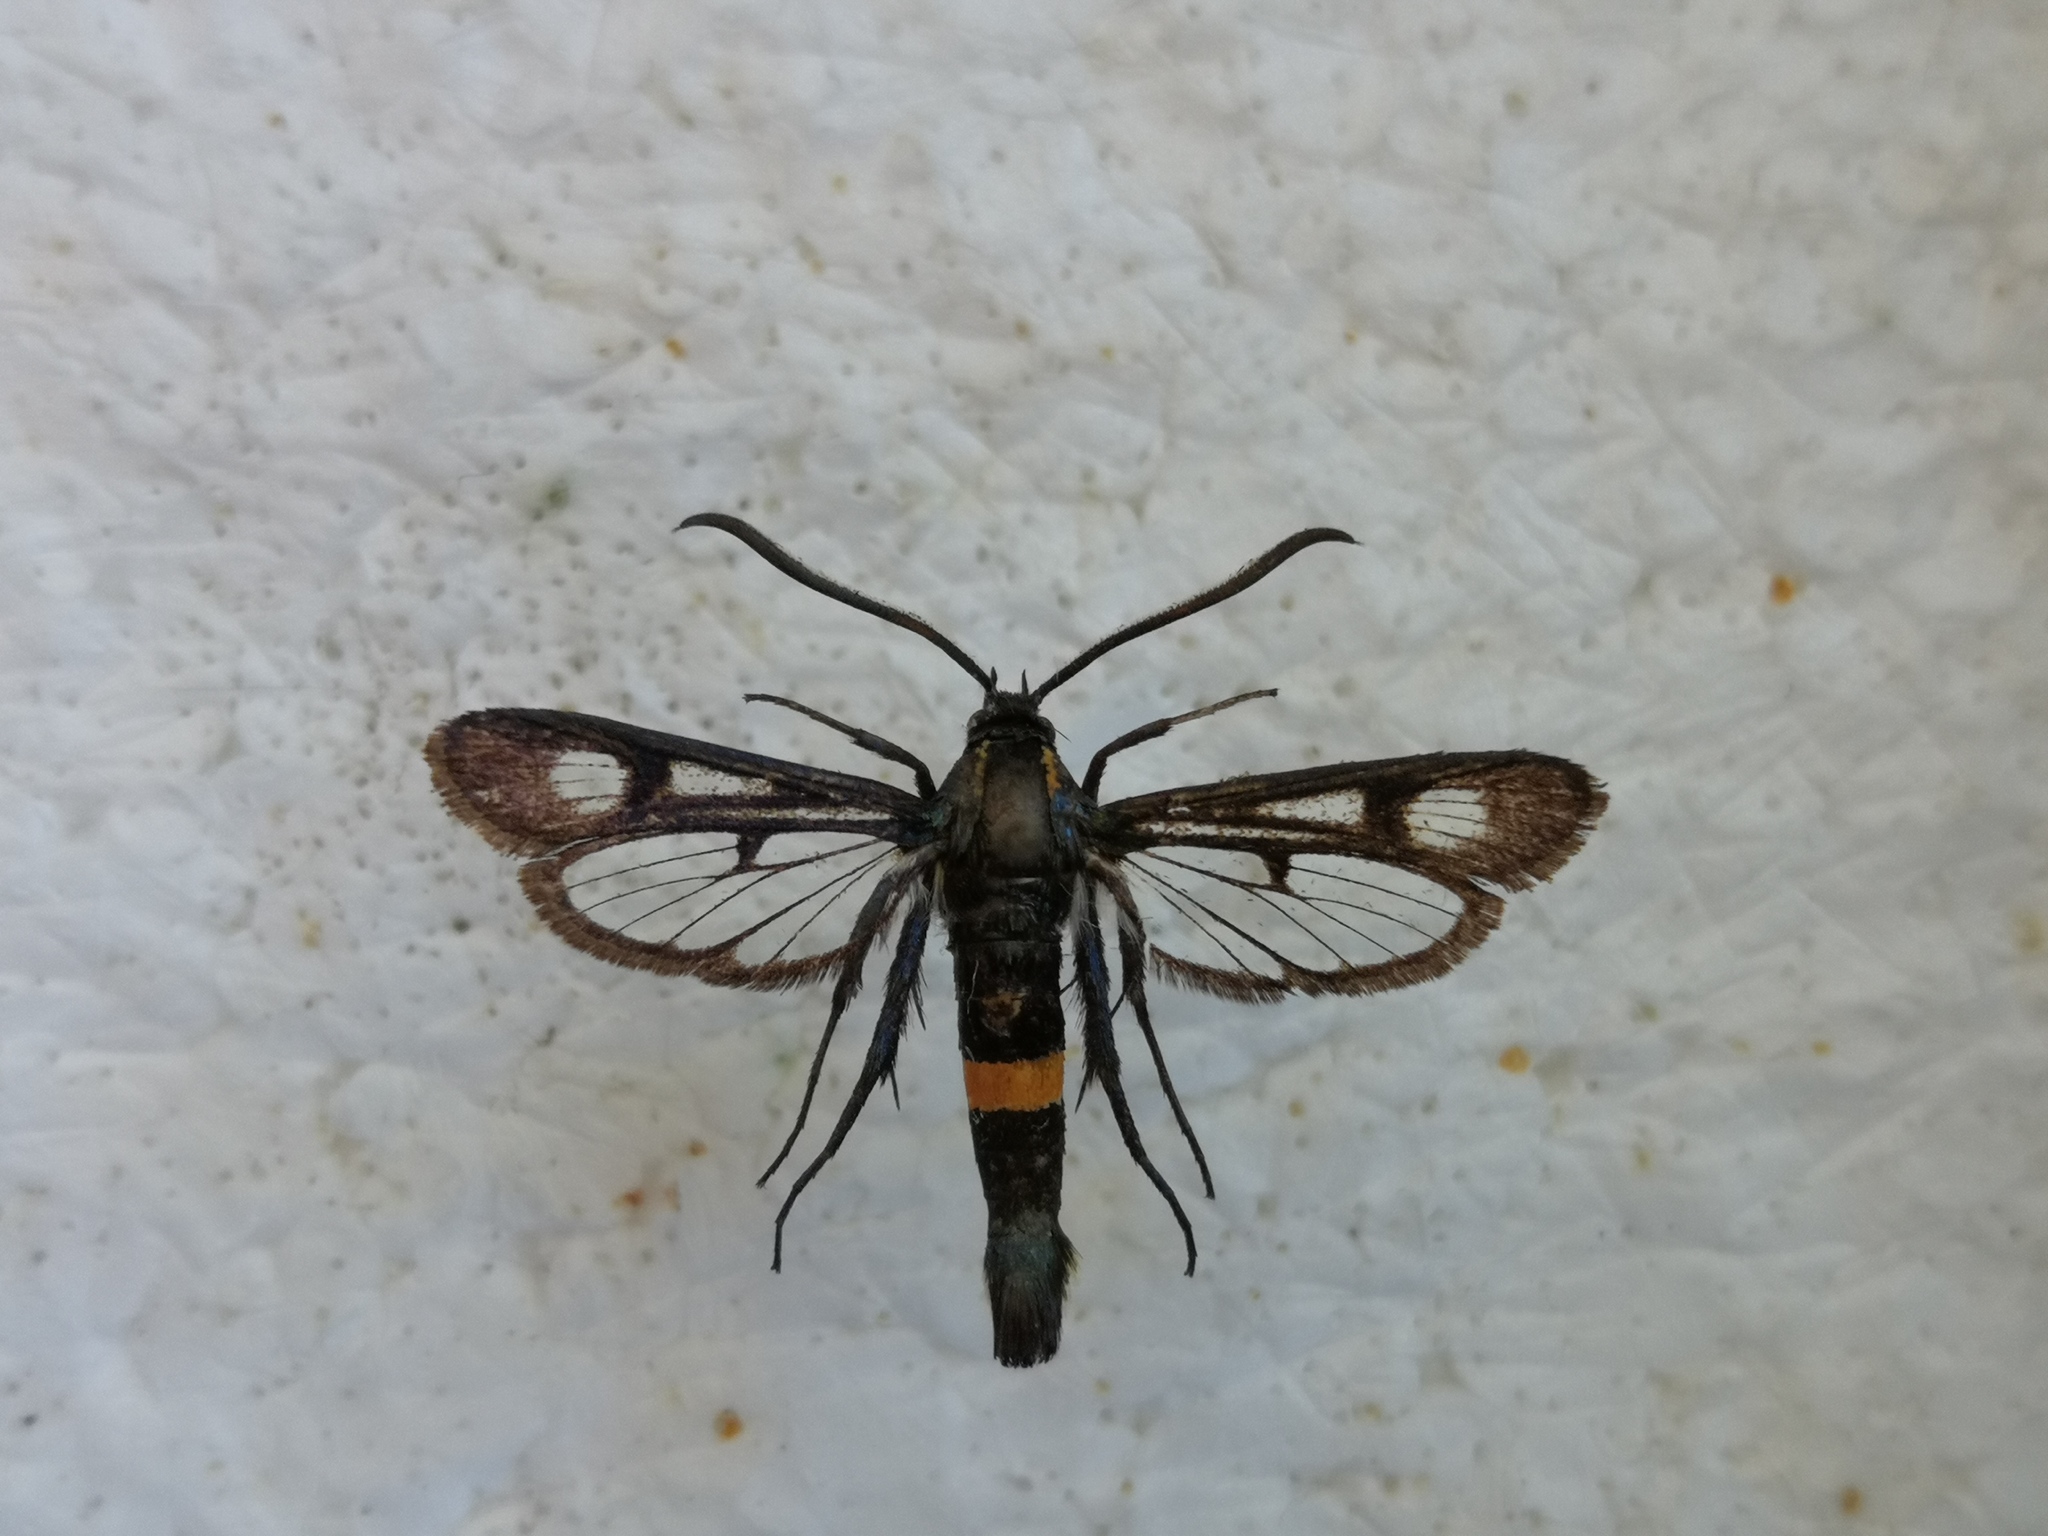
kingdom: Animalia
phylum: Arthropoda
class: Insecta
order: Lepidoptera
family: Sesiidae
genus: Synanthedon
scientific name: Synanthedon stomoxiformis
